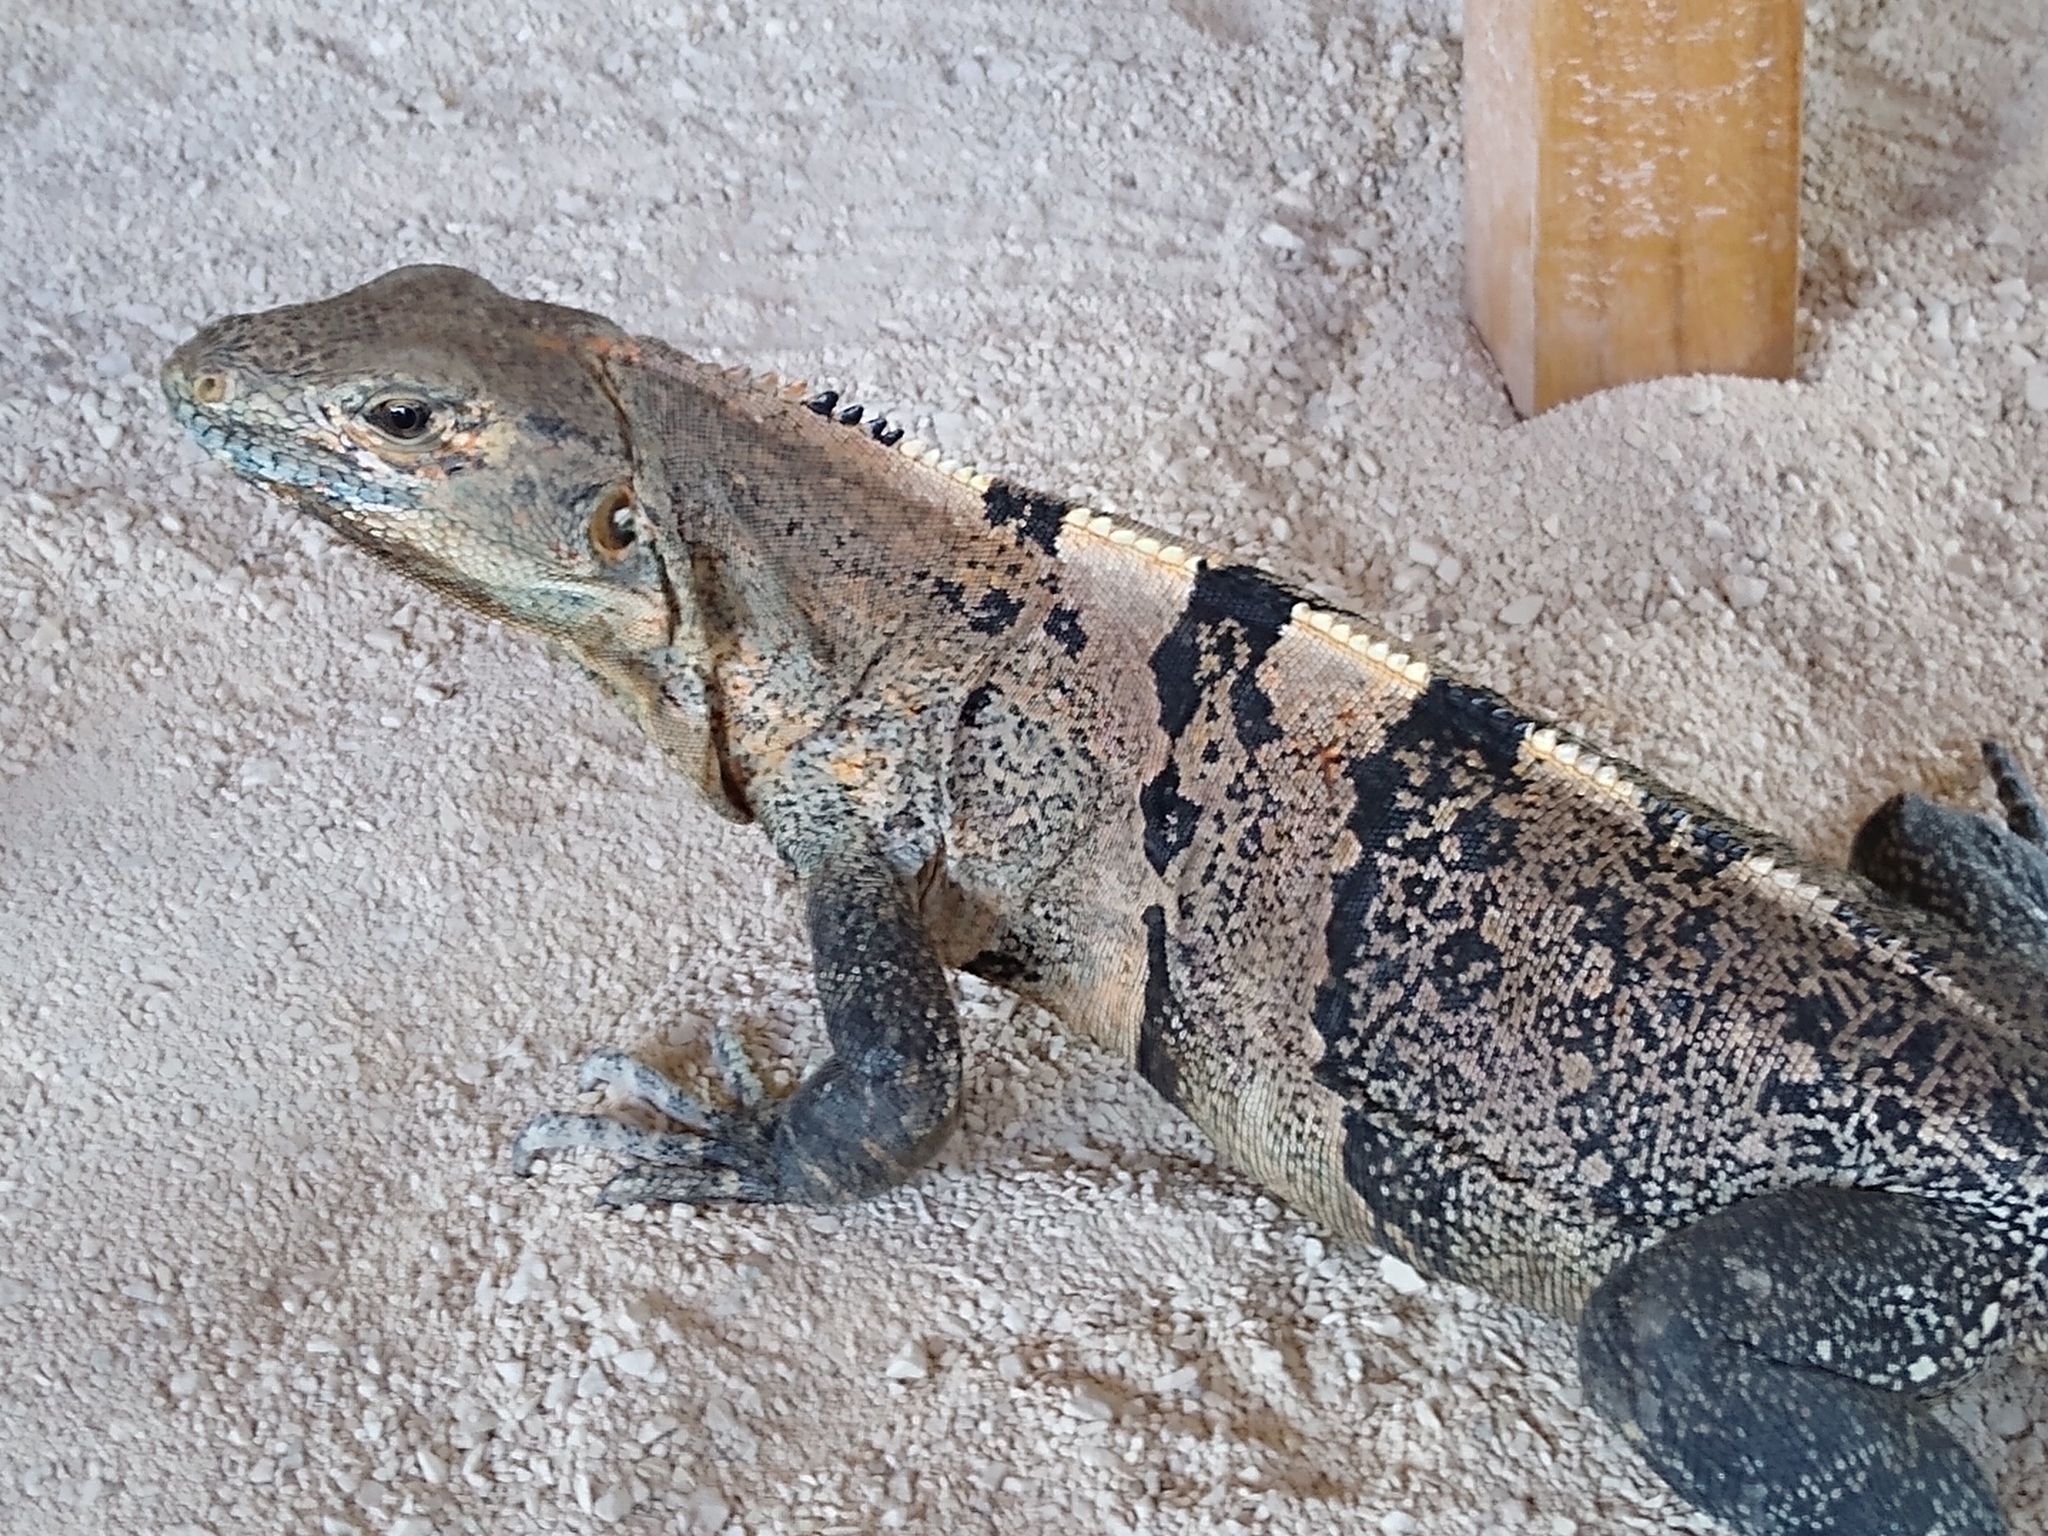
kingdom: Animalia
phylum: Chordata
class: Squamata
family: Iguanidae
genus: Ctenosaura
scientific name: Ctenosaura similis
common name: Black spiny-tailed iguana
